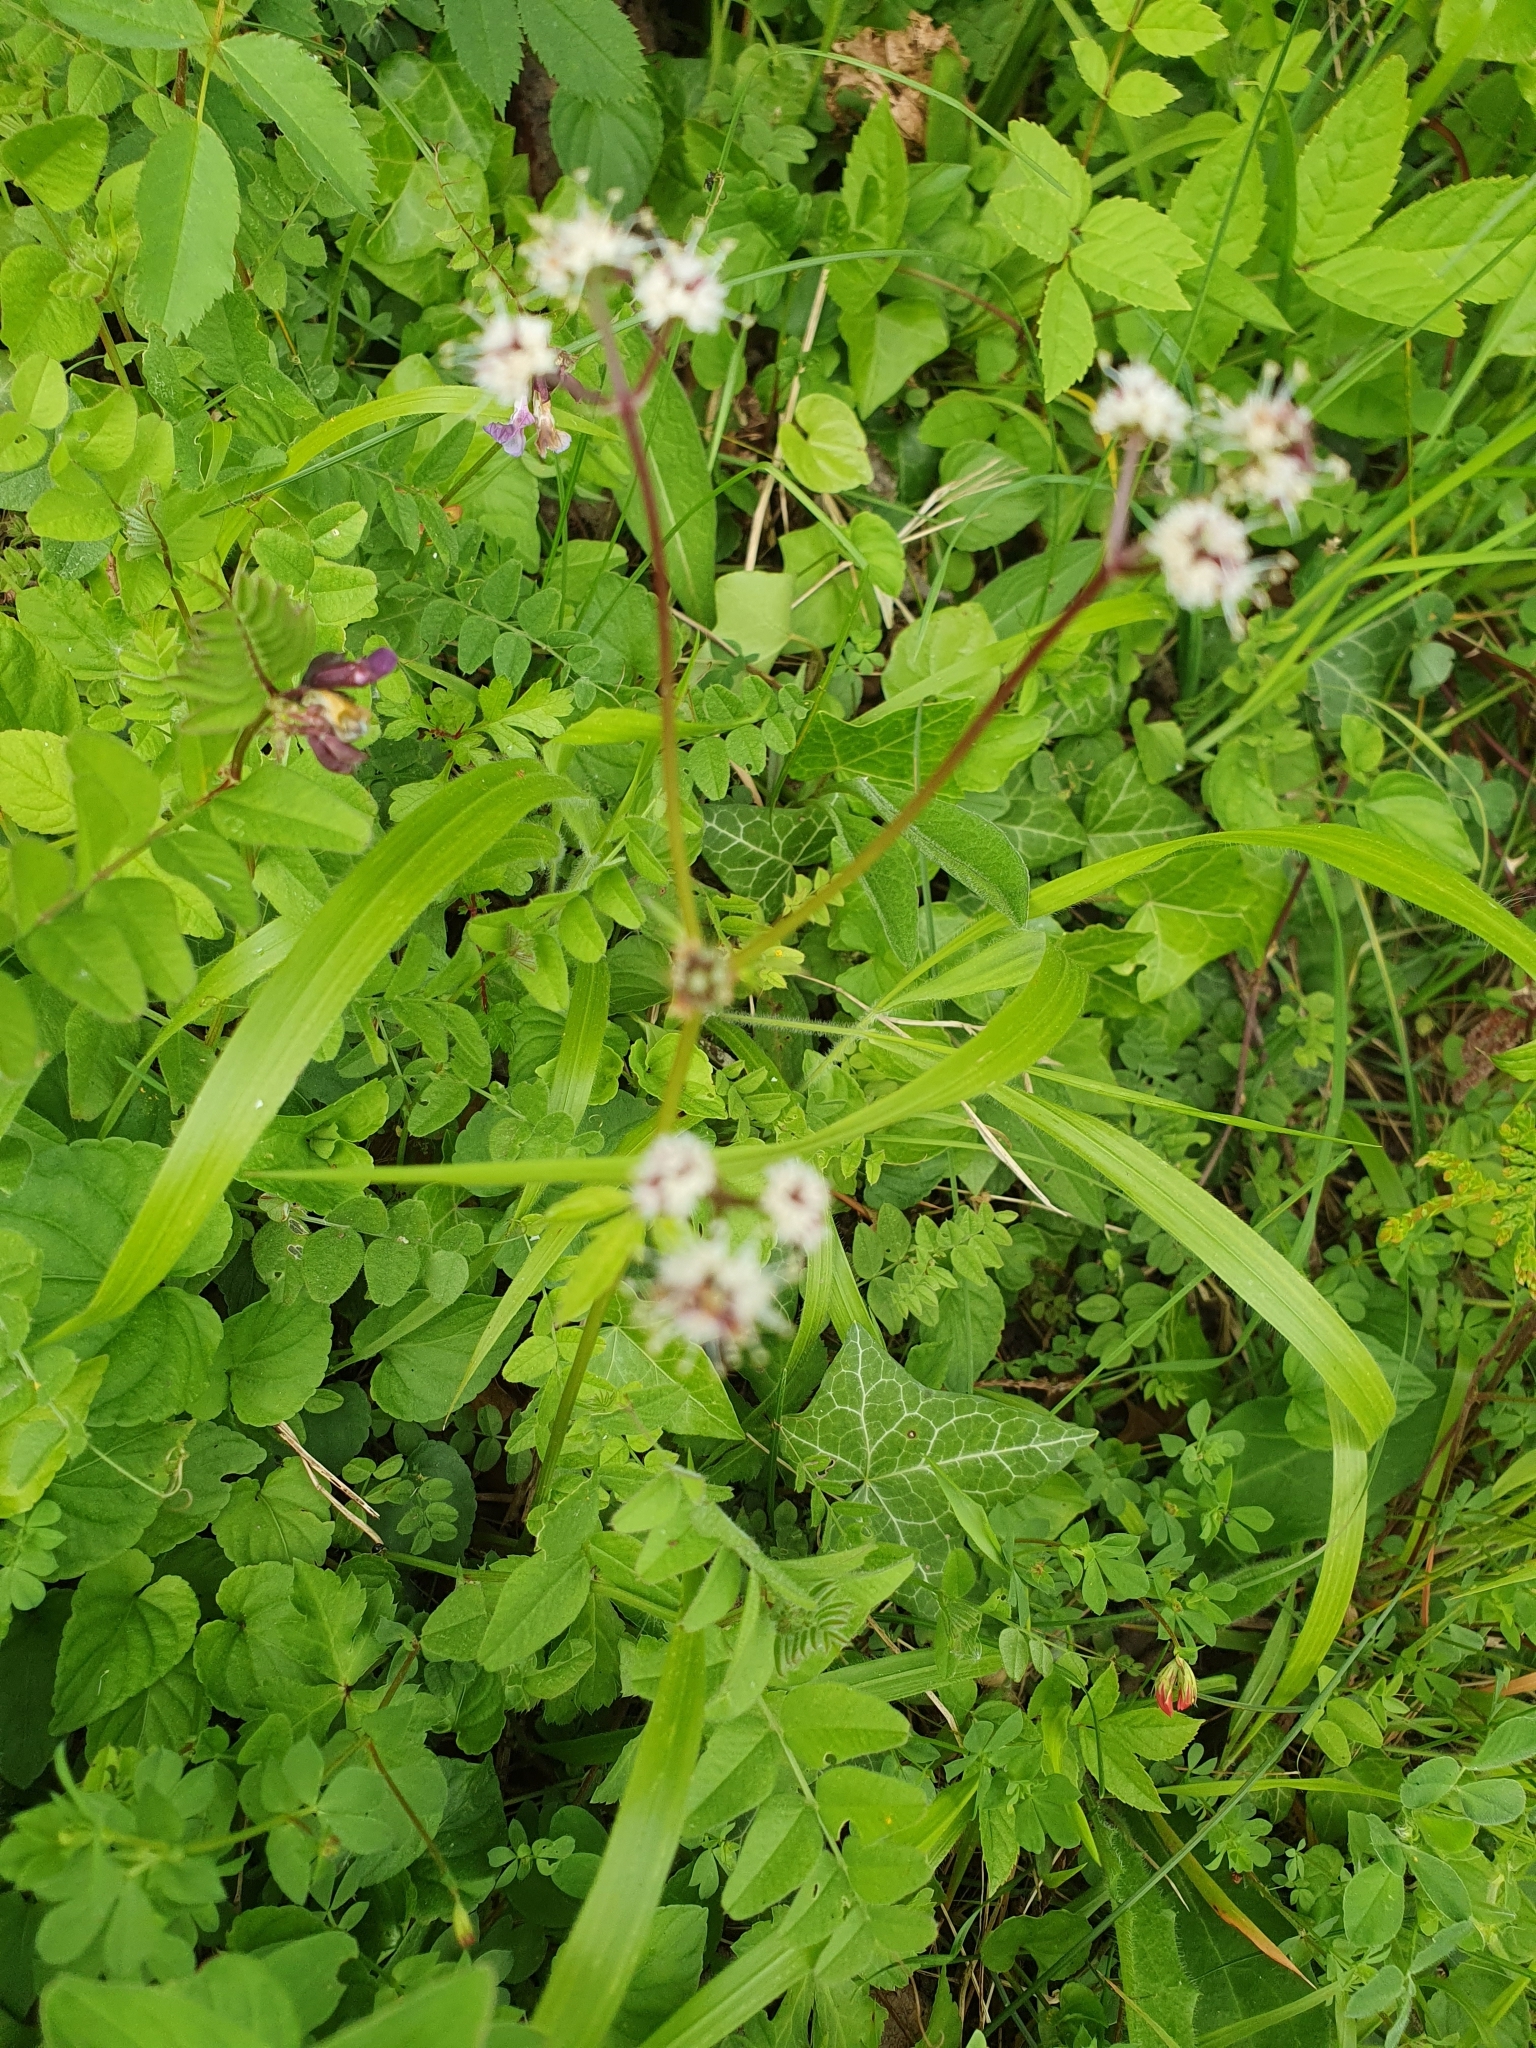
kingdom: Plantae
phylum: Tracheophyta
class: Magnoliopsida
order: Apiales
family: Apiaceae
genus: Sanicula
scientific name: Sanicula europaea
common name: Sanicle
